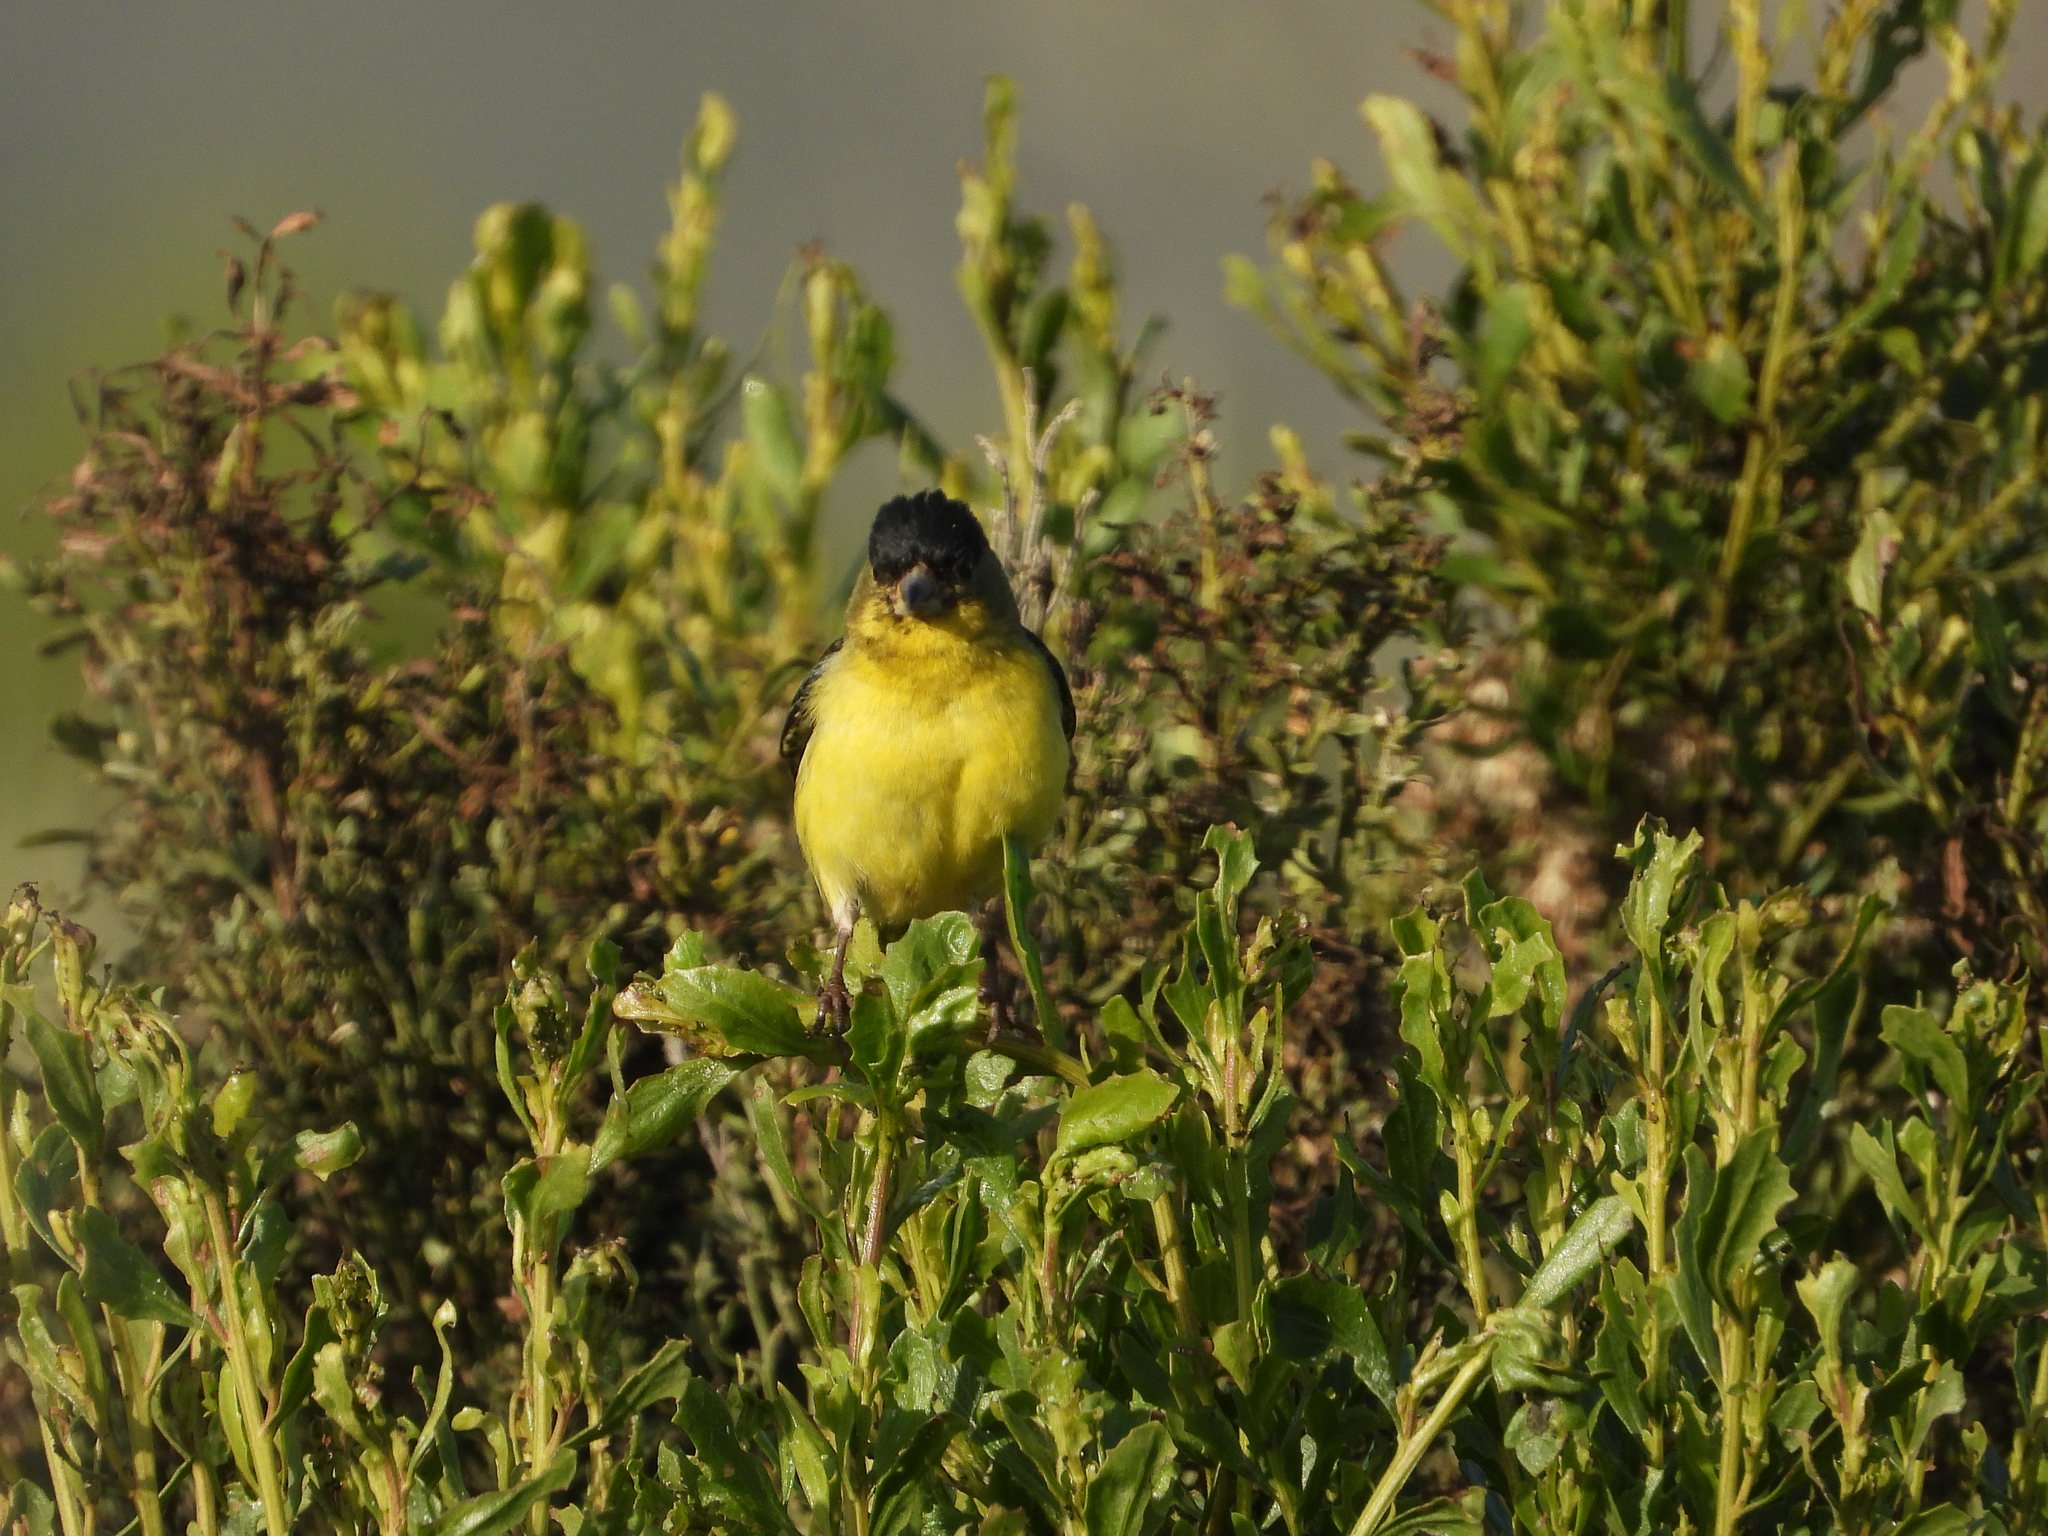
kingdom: Animalia
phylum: Chordata
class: Aves
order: Passeriformes
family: Fringillidae
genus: Spinus
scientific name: Spinus psaltria
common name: Lesser goldfinch
